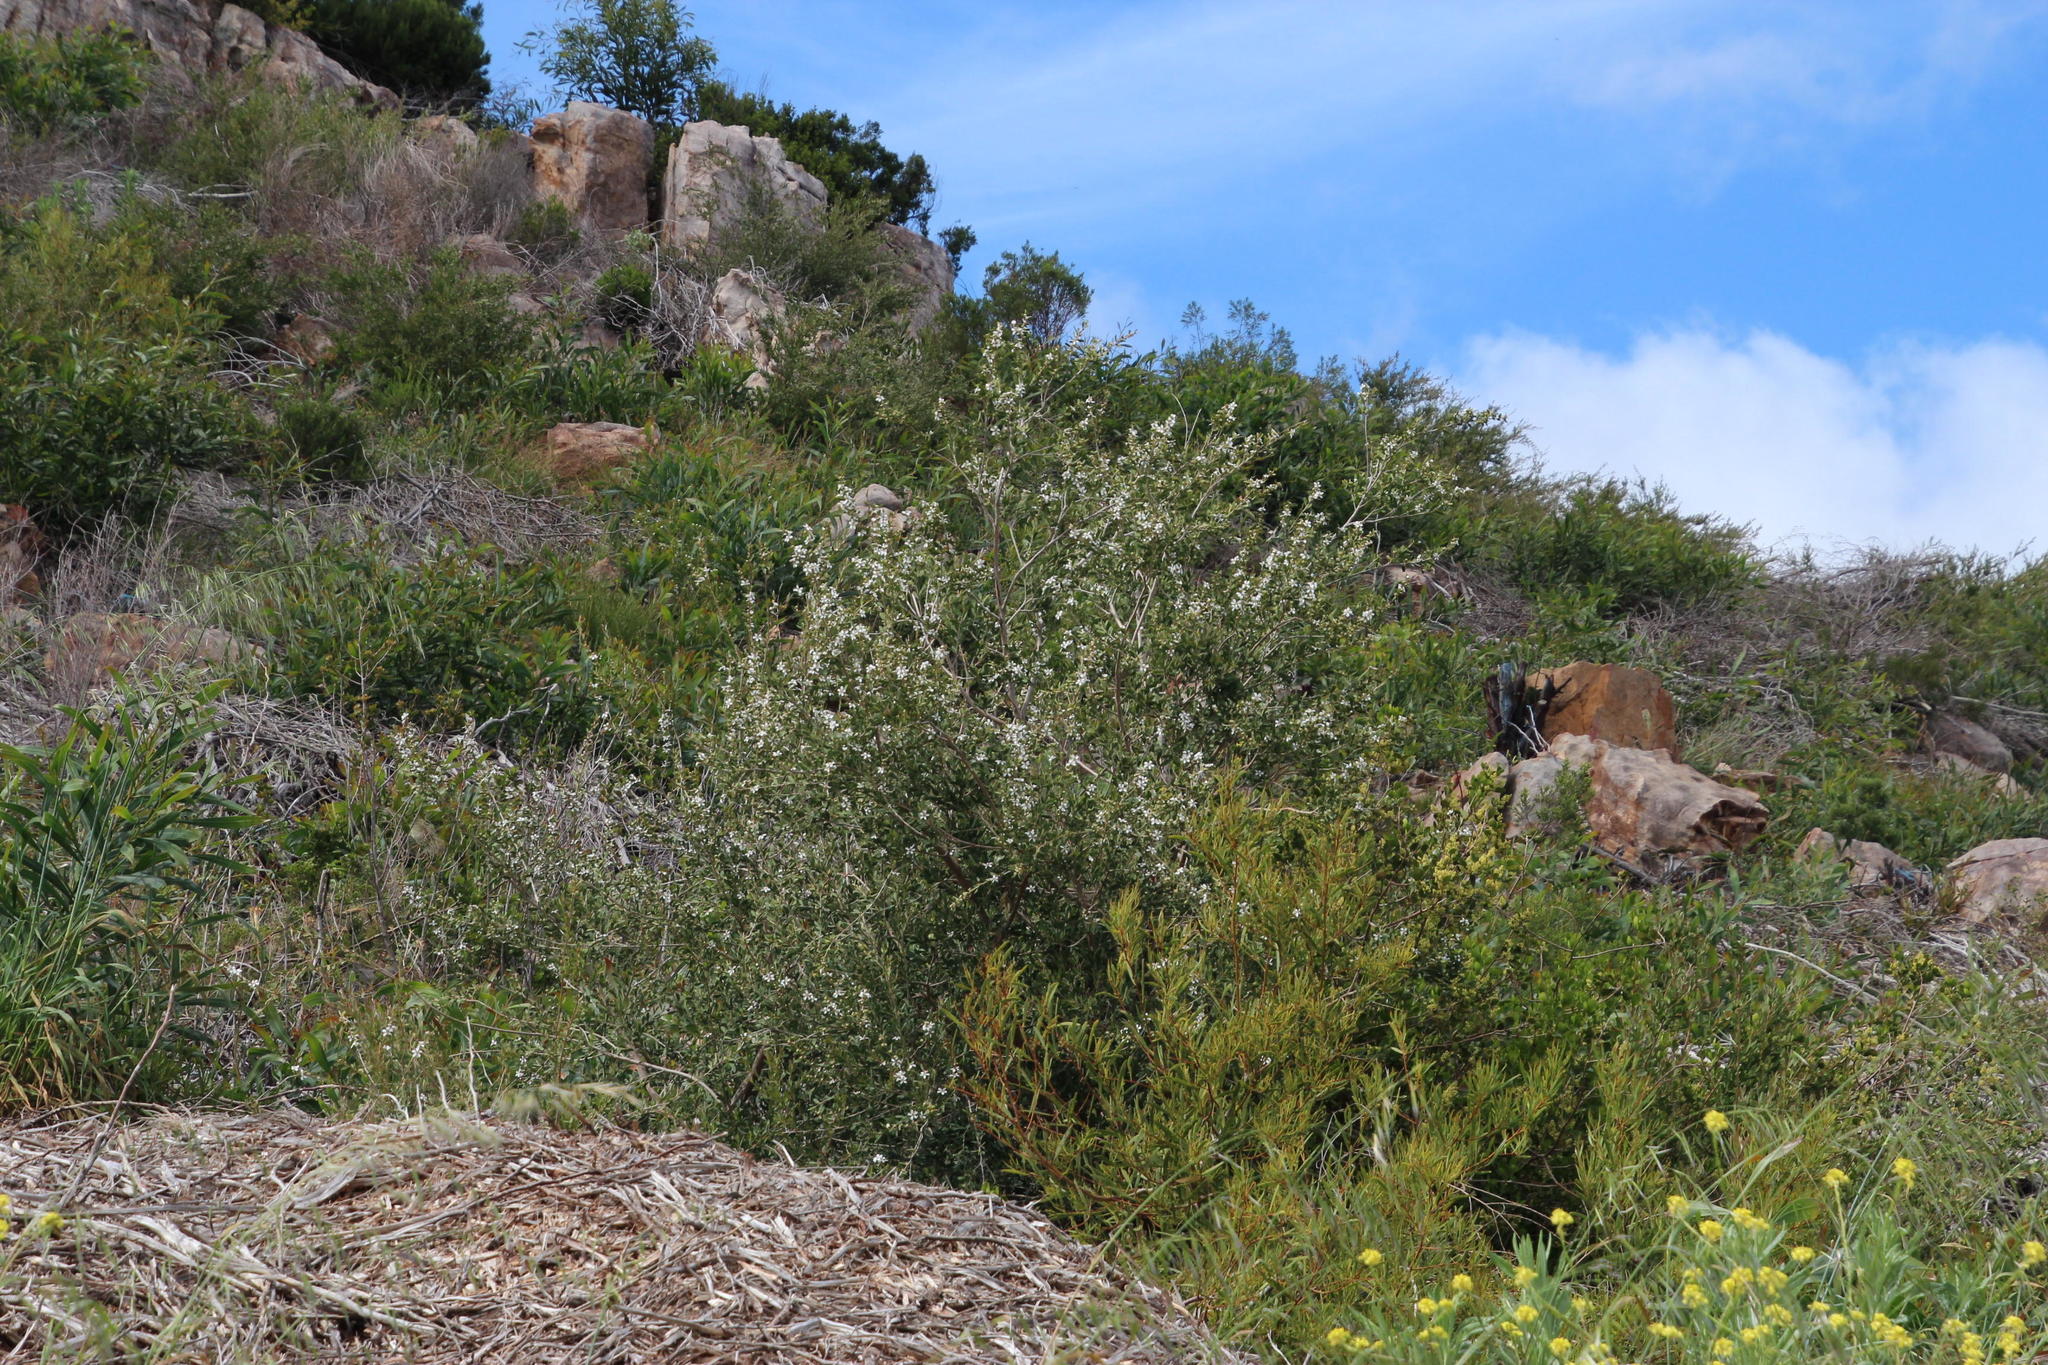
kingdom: Plantae
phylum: Tracheophyta
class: Magnoliopsida
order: Myrtales
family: Myrtaceae
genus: Leptospermum
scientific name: Leptospermum laevigatum
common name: Australian teatree
